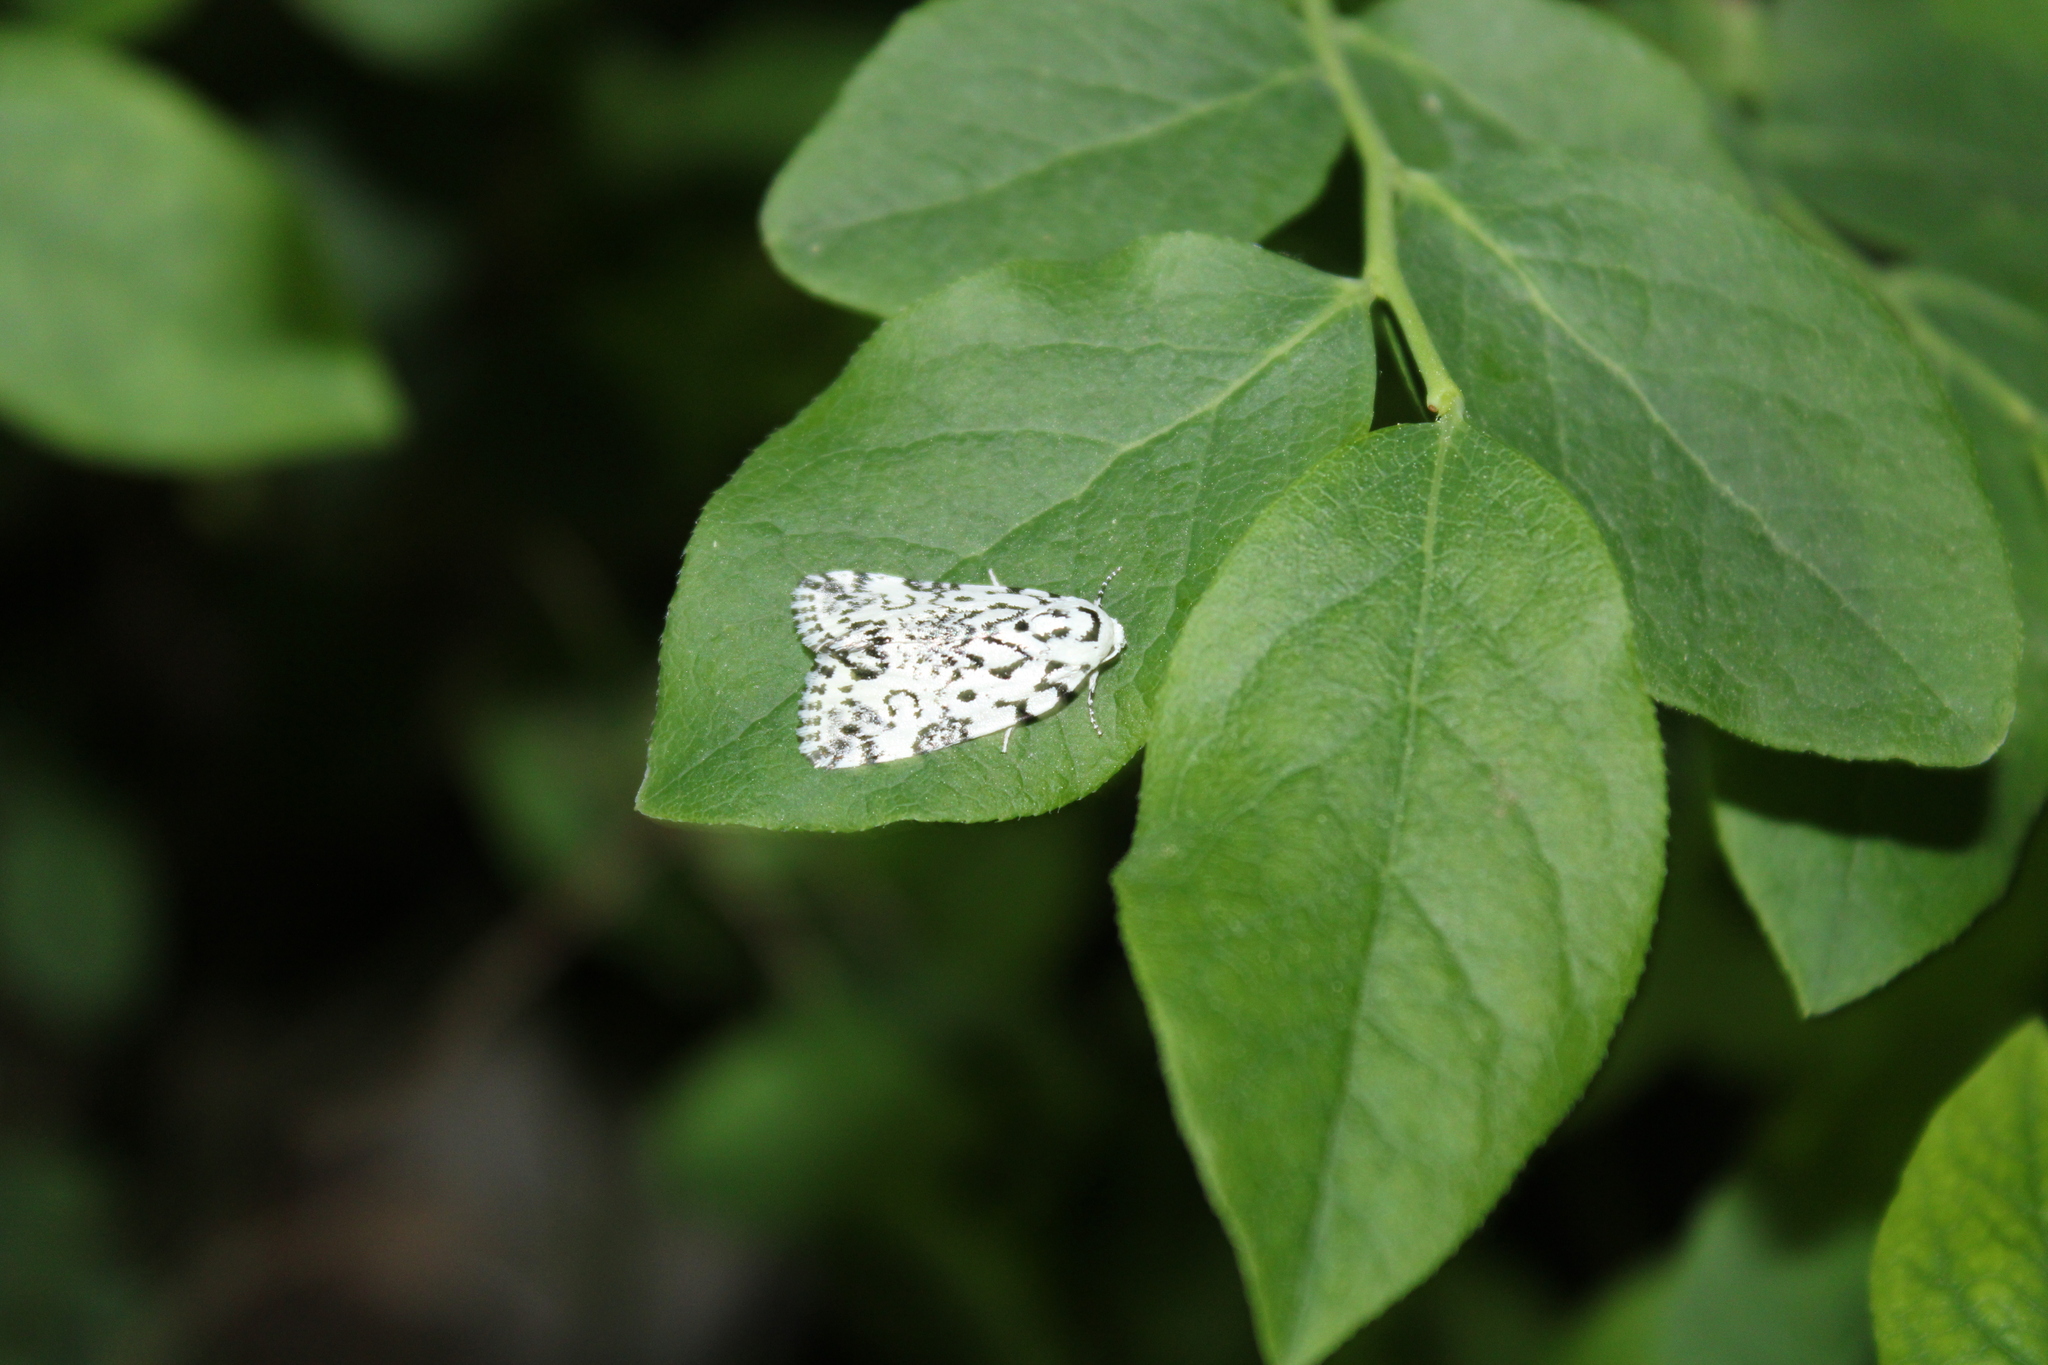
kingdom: Animalia
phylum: Arthropoda
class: Insecta
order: Lepidoptera
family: Noctuidae
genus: Polygrammate
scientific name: Polygrammate hebraeicum
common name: Hebrew moth
